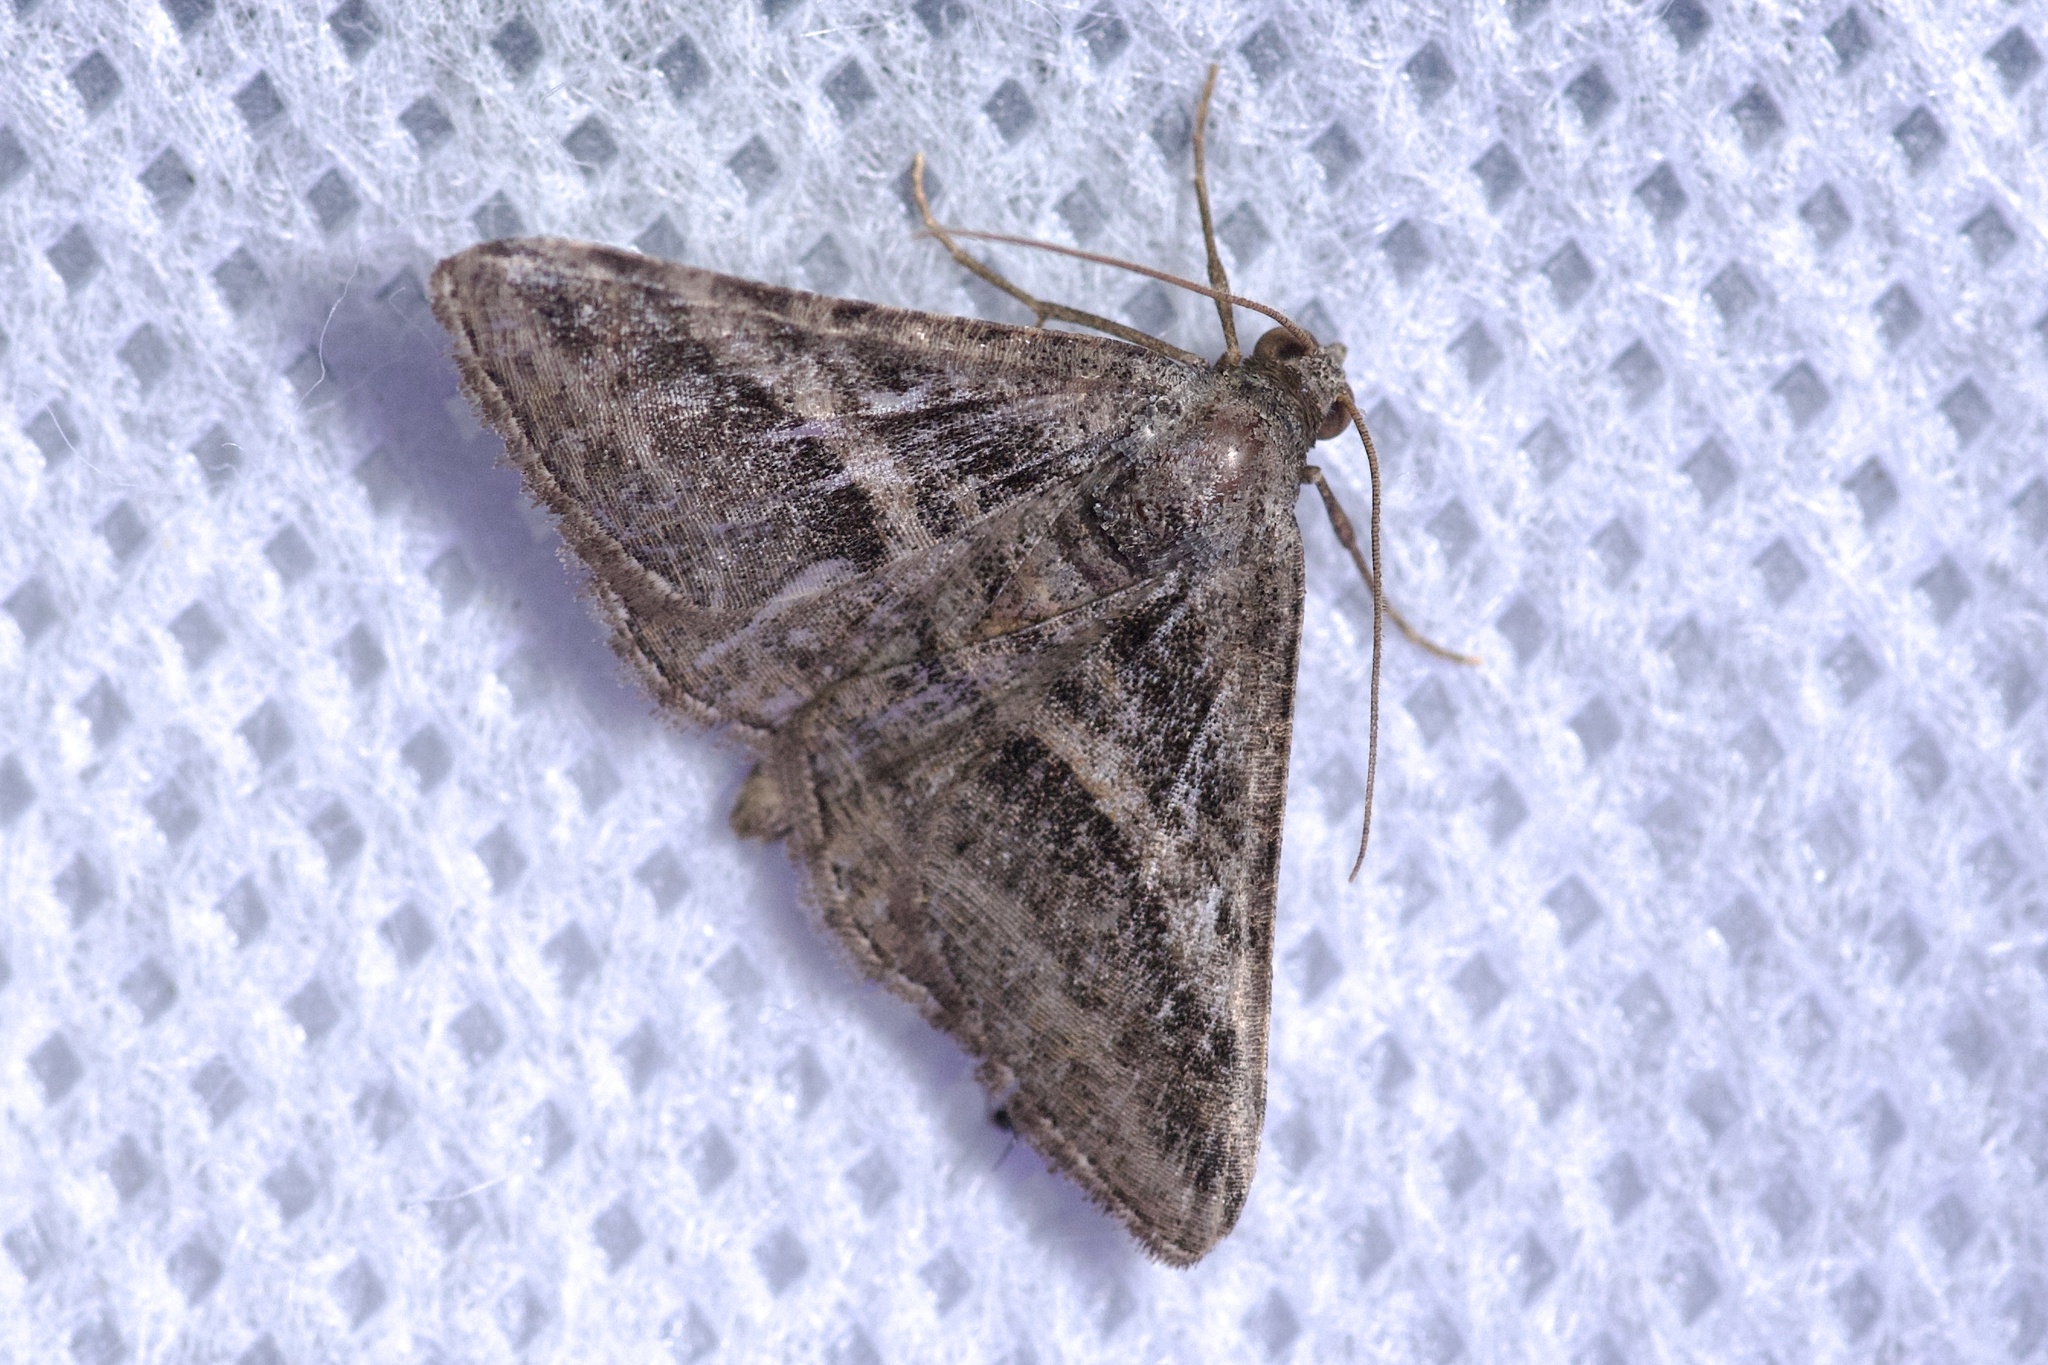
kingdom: Animalia
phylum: Arthropoda
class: Insecta
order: Lepidoptera
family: Geometridae
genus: Digrammia
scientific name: Digrammia atrofasciata
